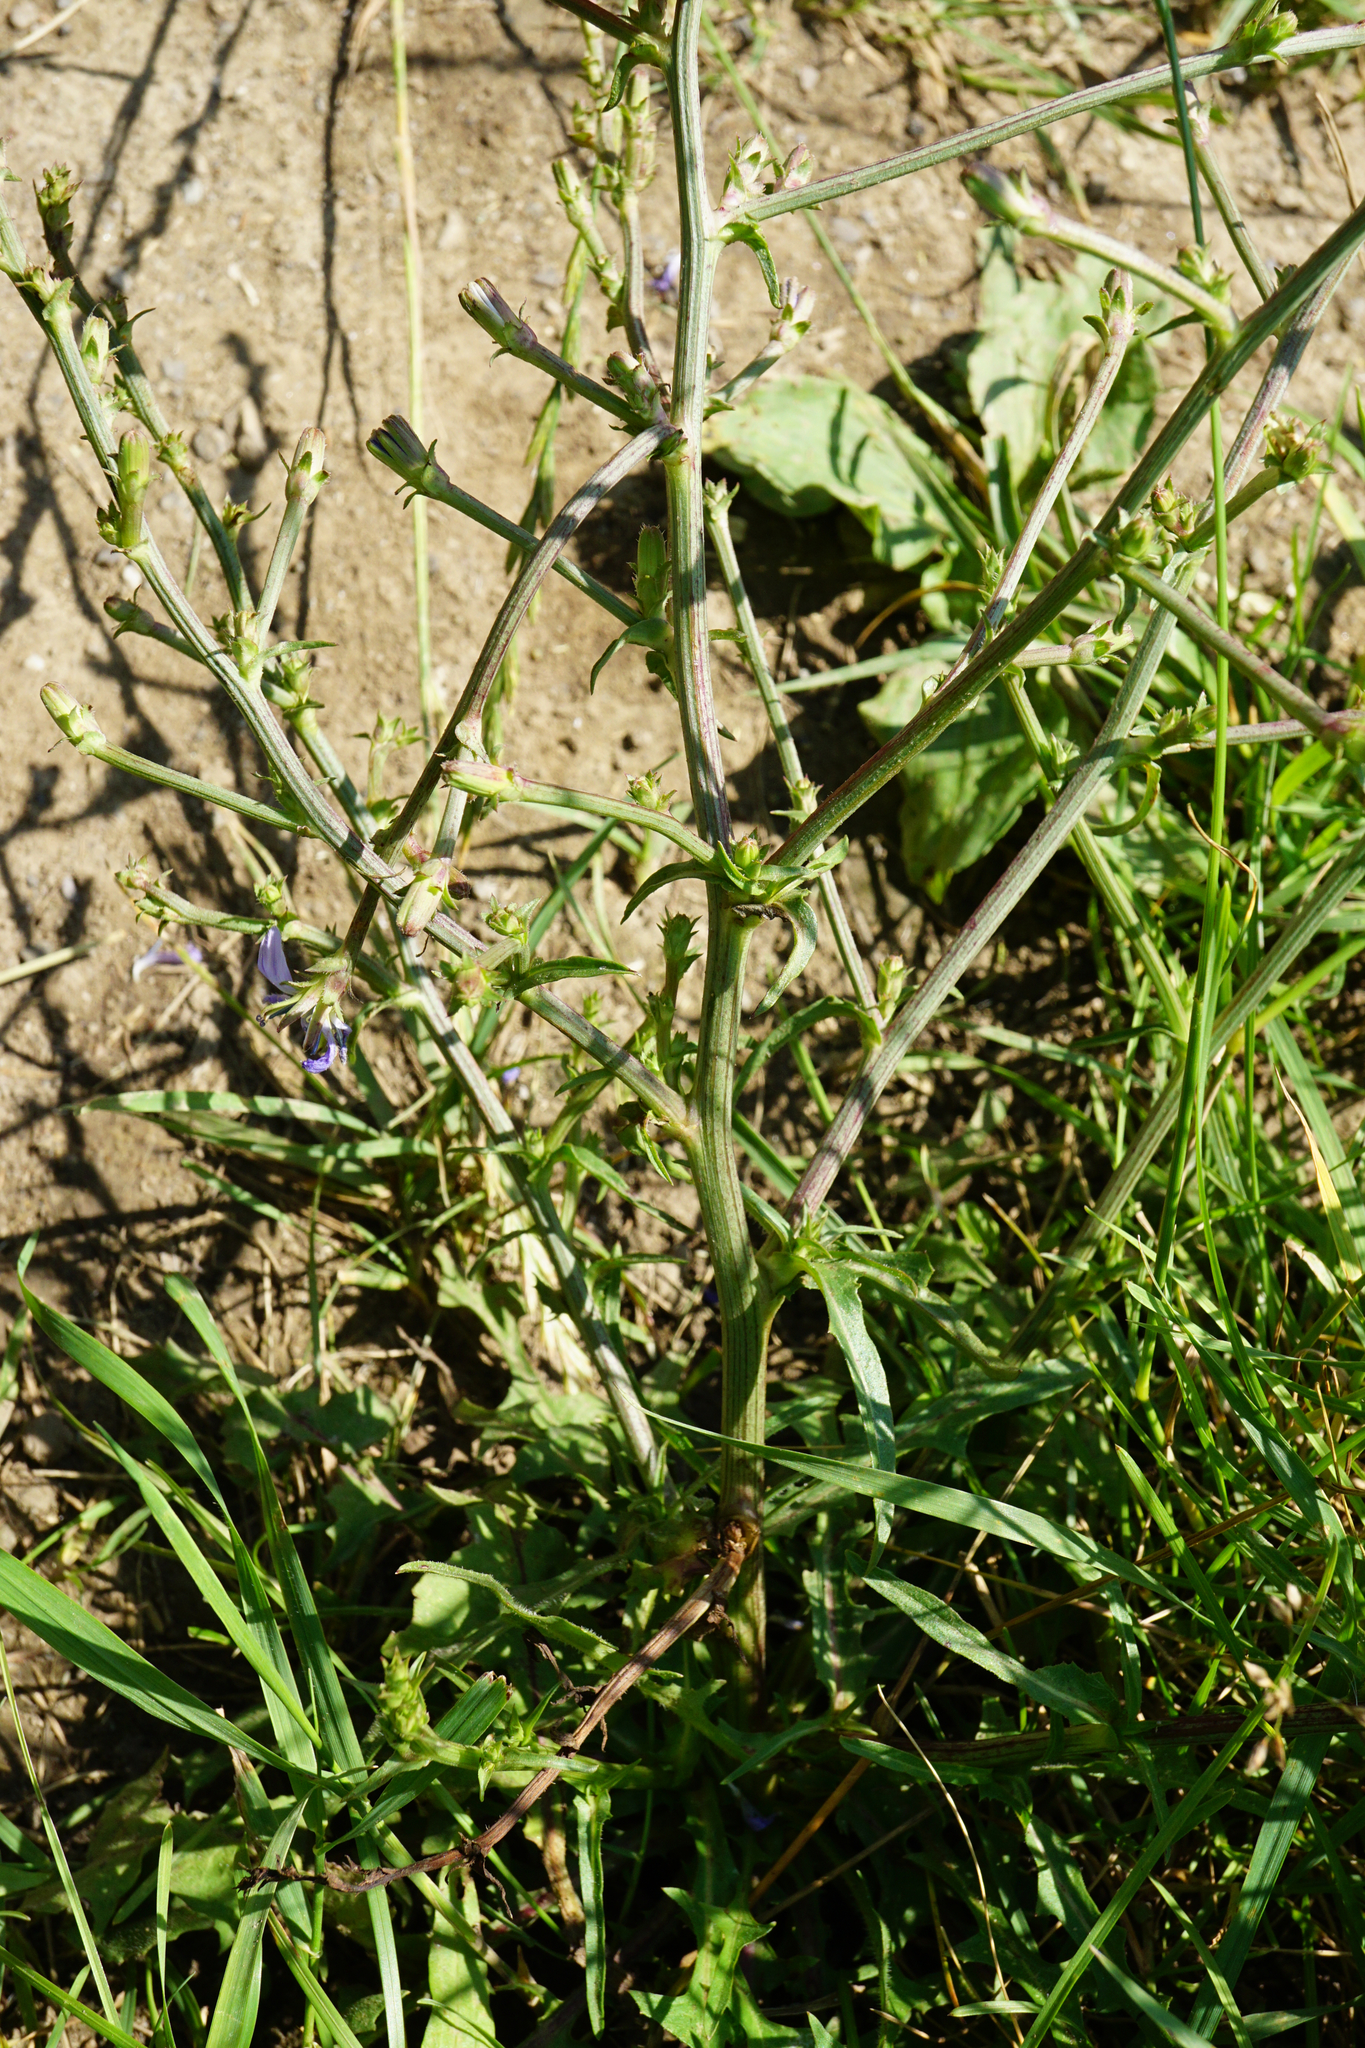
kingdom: Plantae
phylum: Tracheophyta
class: Magnoliopsida
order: Asterales
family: Asteraceae
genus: Cichorium
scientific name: Cichorium intybus
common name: Chicory
